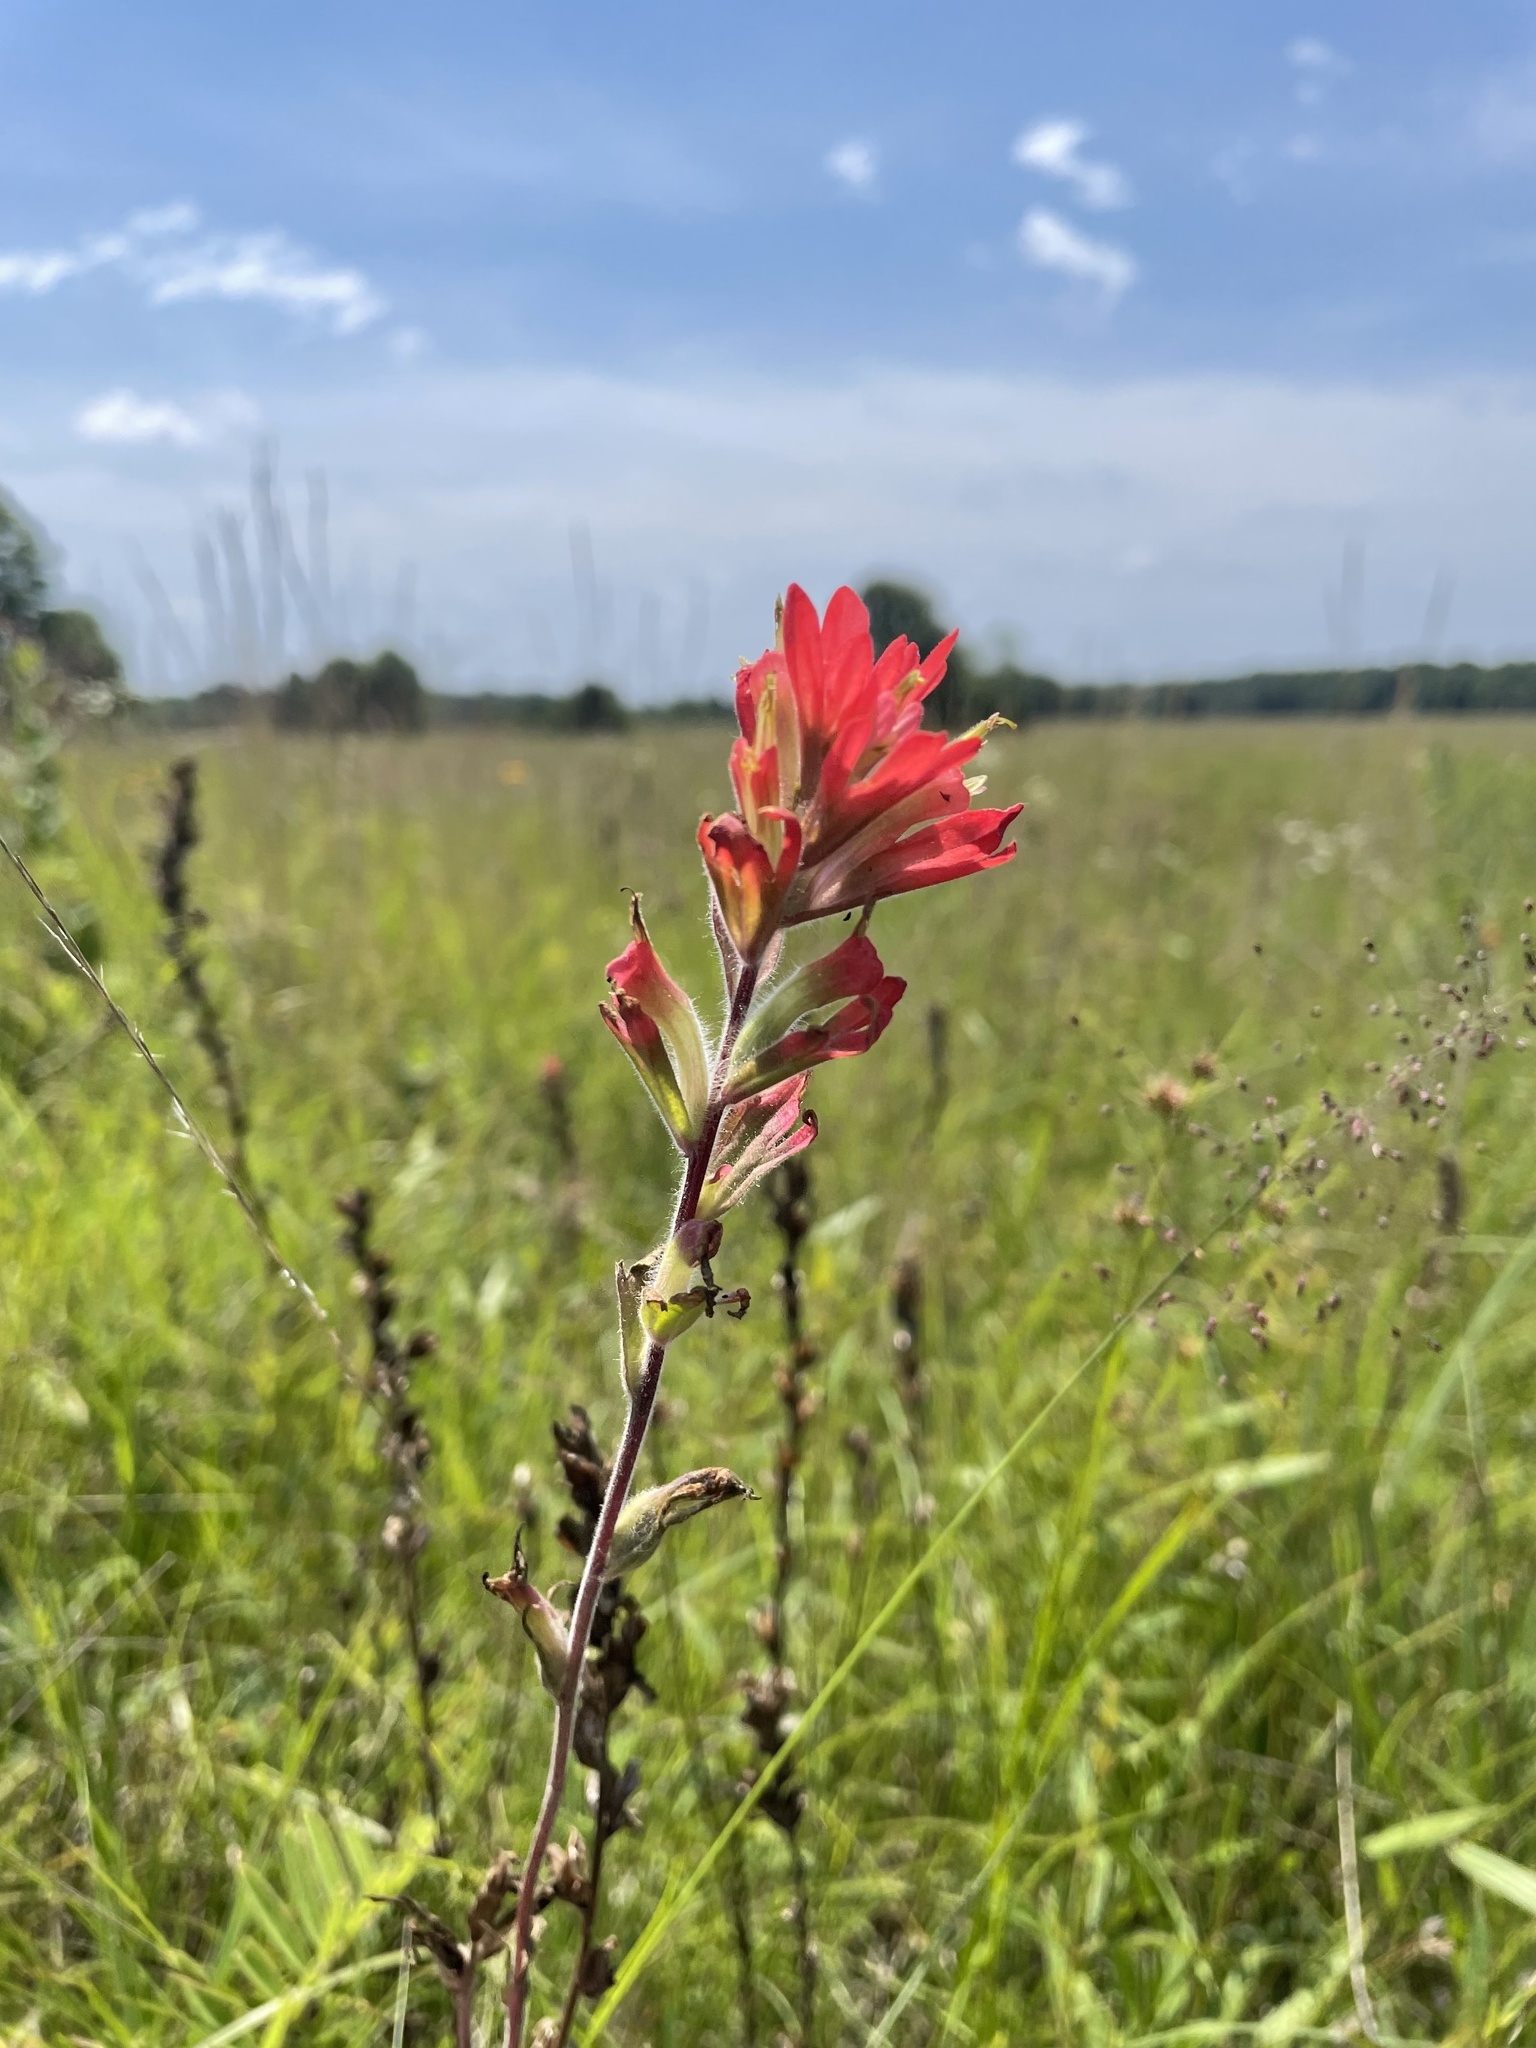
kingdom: Plantae
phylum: Tracheophyta
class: Magnoliopsida
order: Lamiales
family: Orobanchaceae
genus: Castilleja
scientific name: Castilleja indivisa
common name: Texas paintbrush
